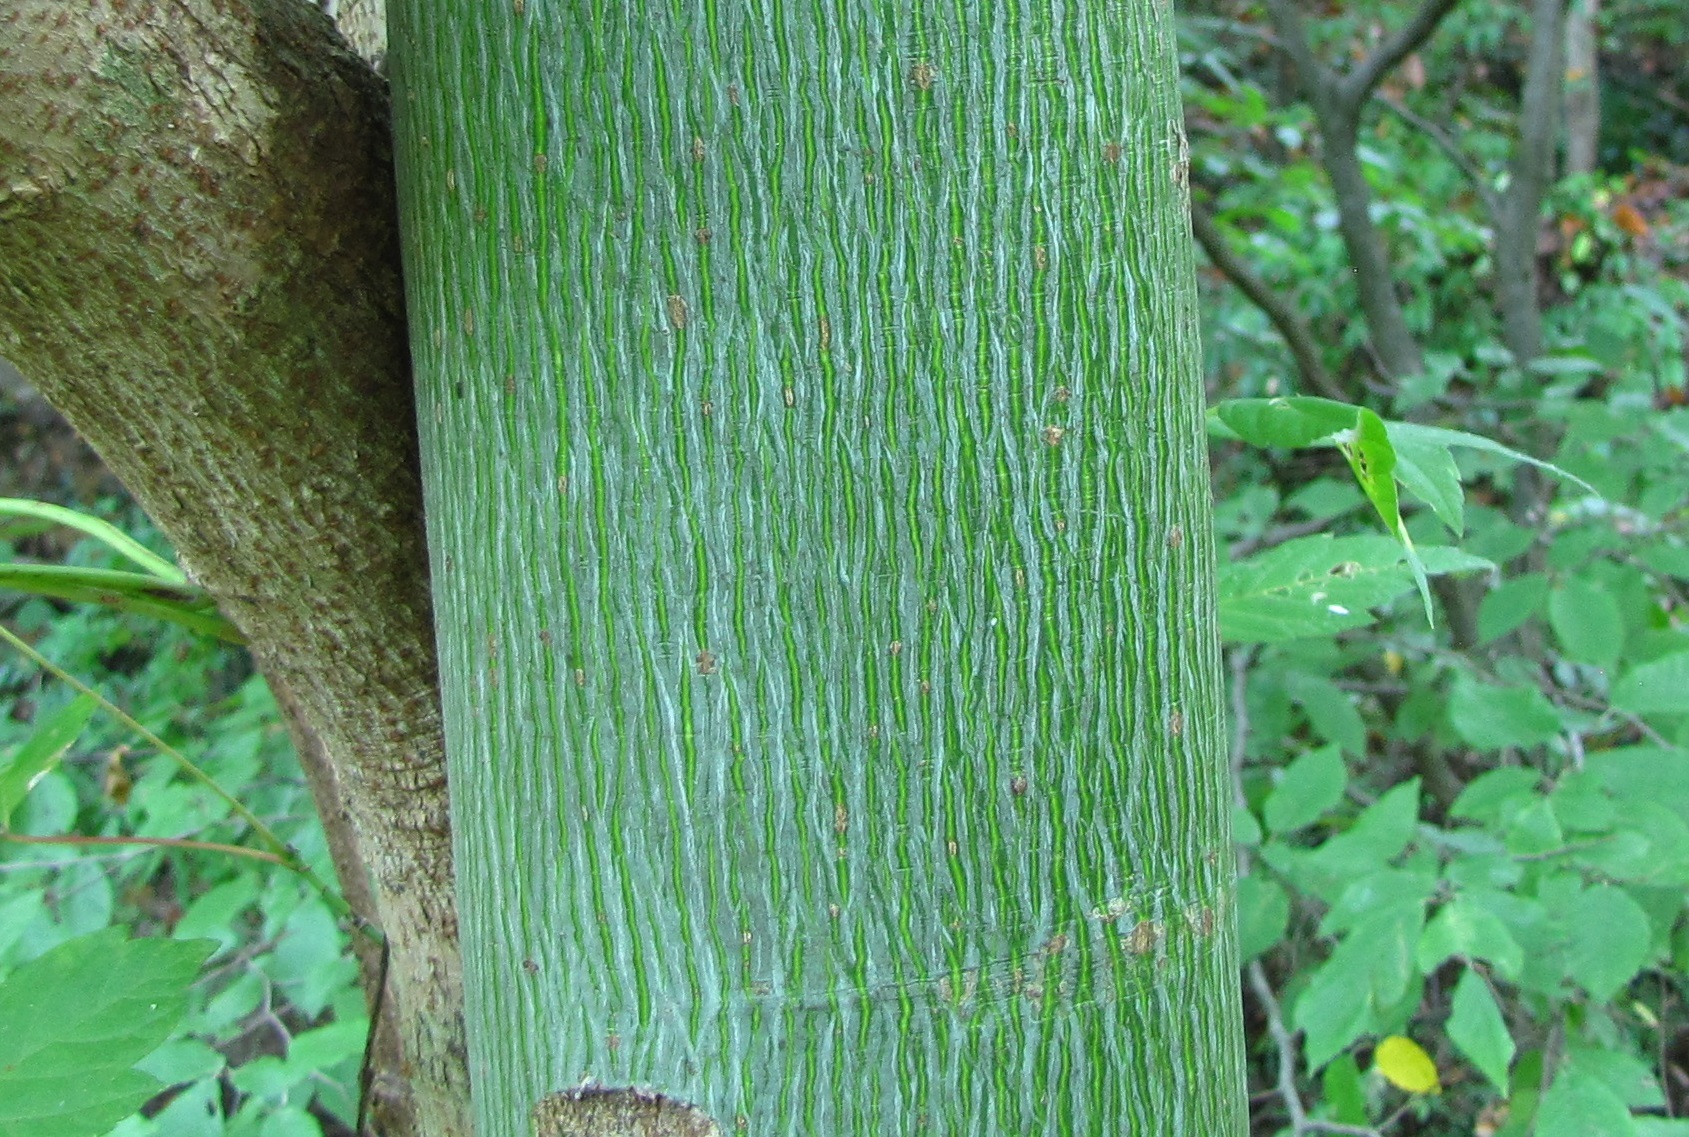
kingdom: Plantae
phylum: Tracheophyta
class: Magnoliopsida
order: Malvales
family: Malvaceae
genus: Firmiana
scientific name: Firmiana simplex
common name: Chinese parasoltree
